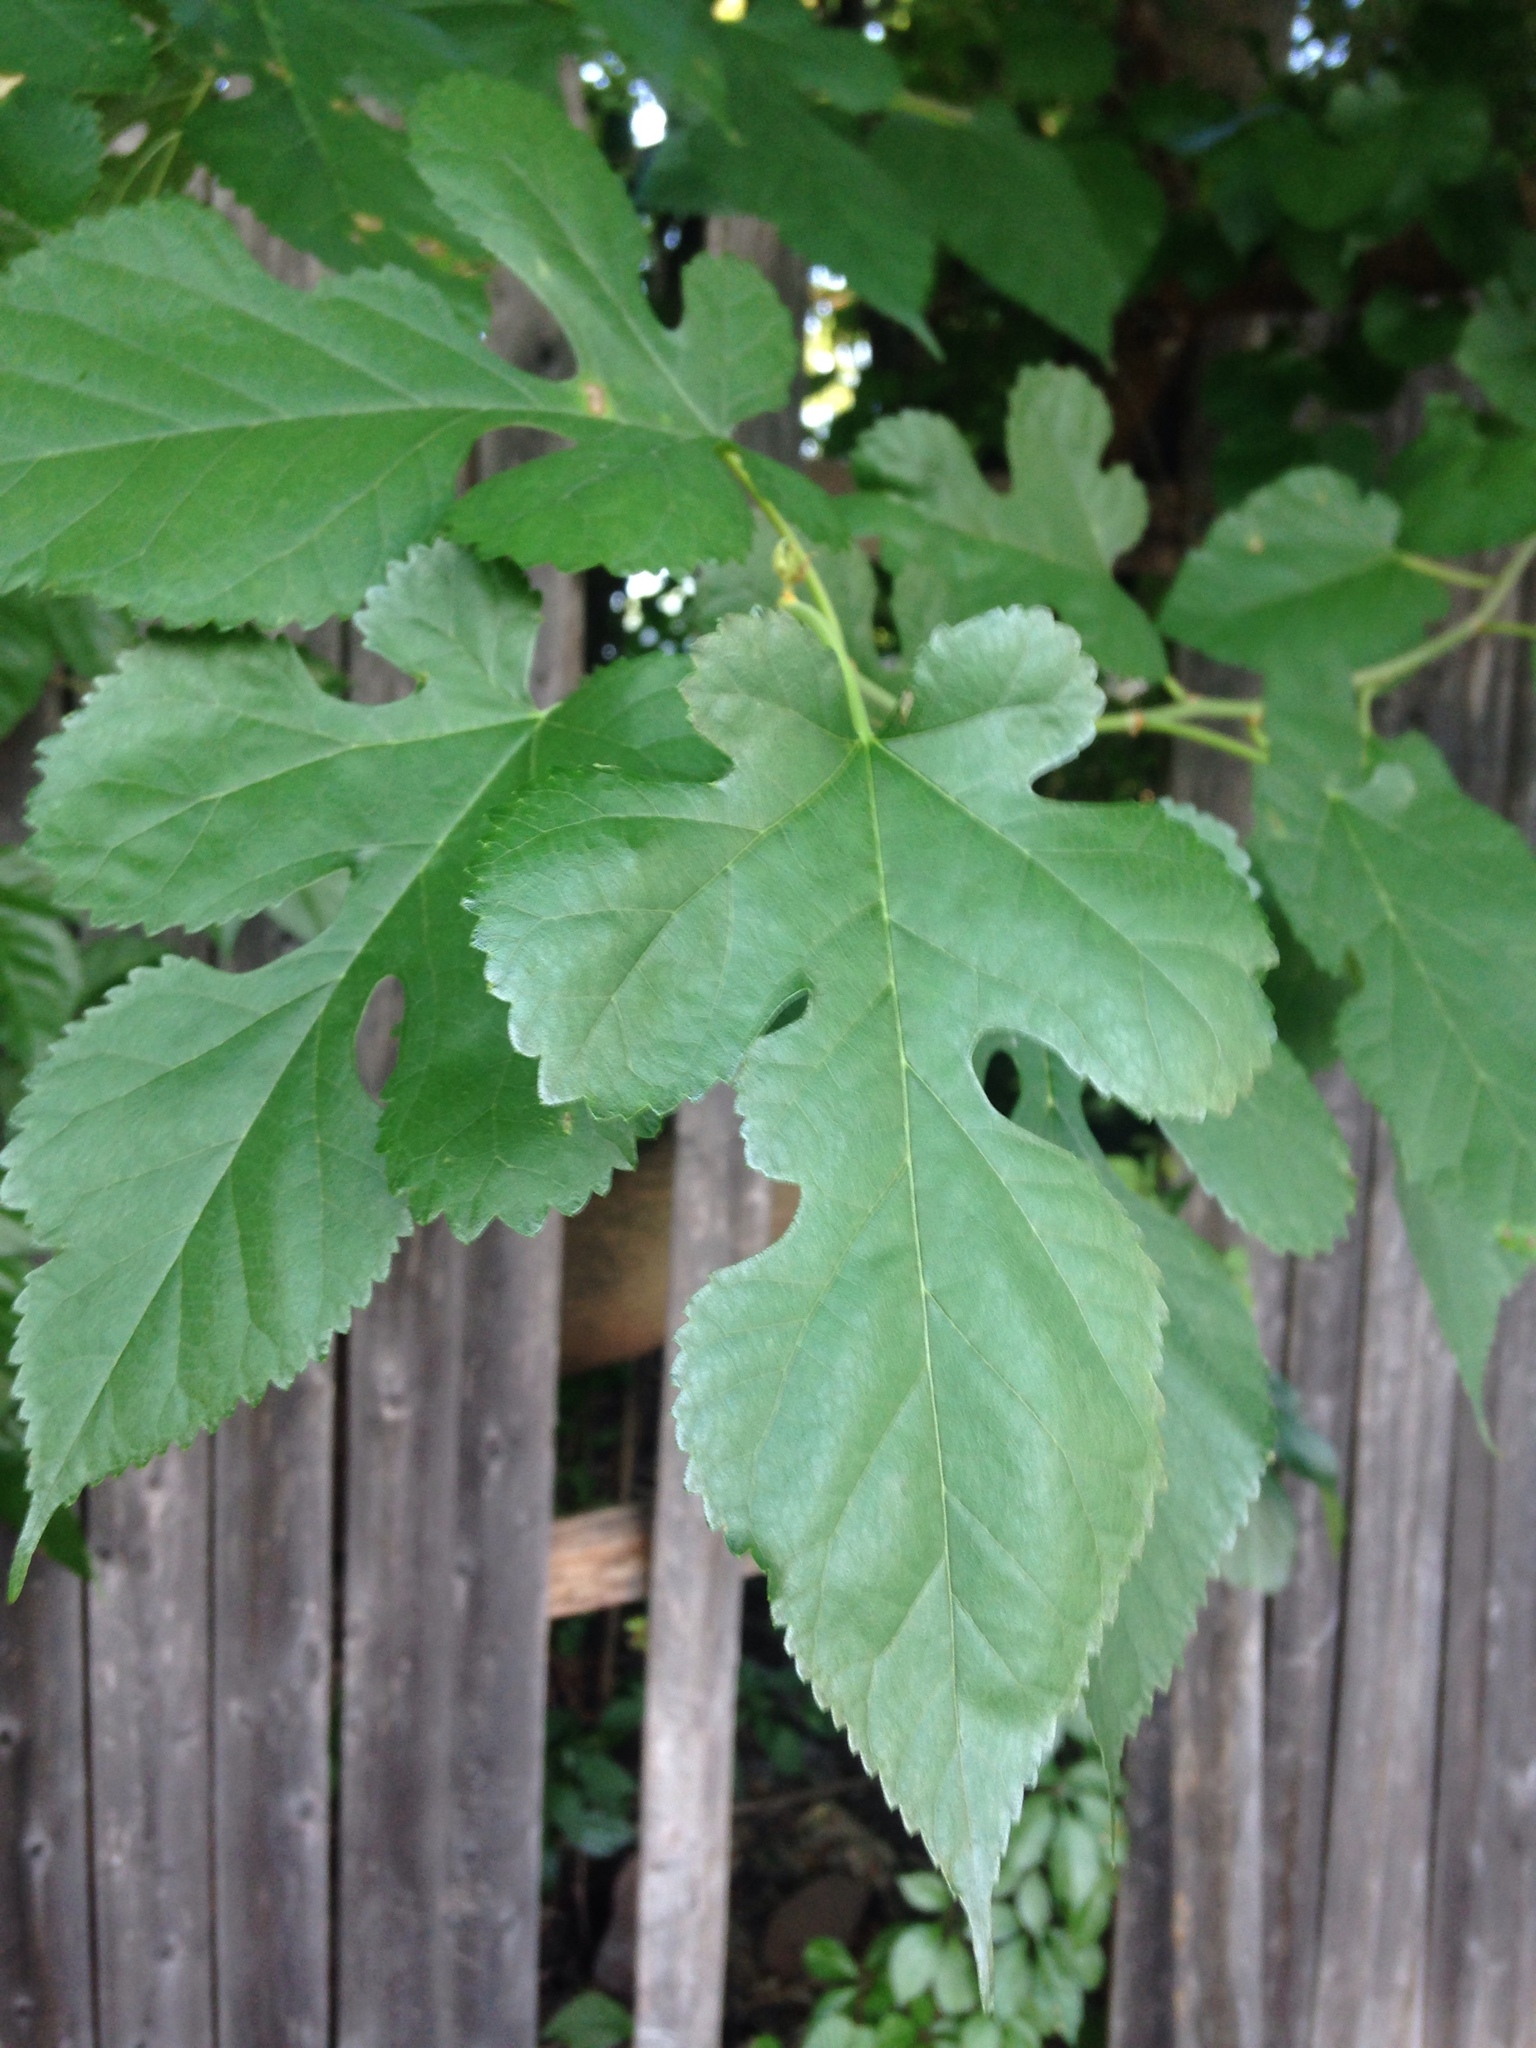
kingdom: Plantae
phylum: Tracheophyta
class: Magnoliopsida
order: Rosales
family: Moraceae
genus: Morus
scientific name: Morus alba
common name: White mulberry
